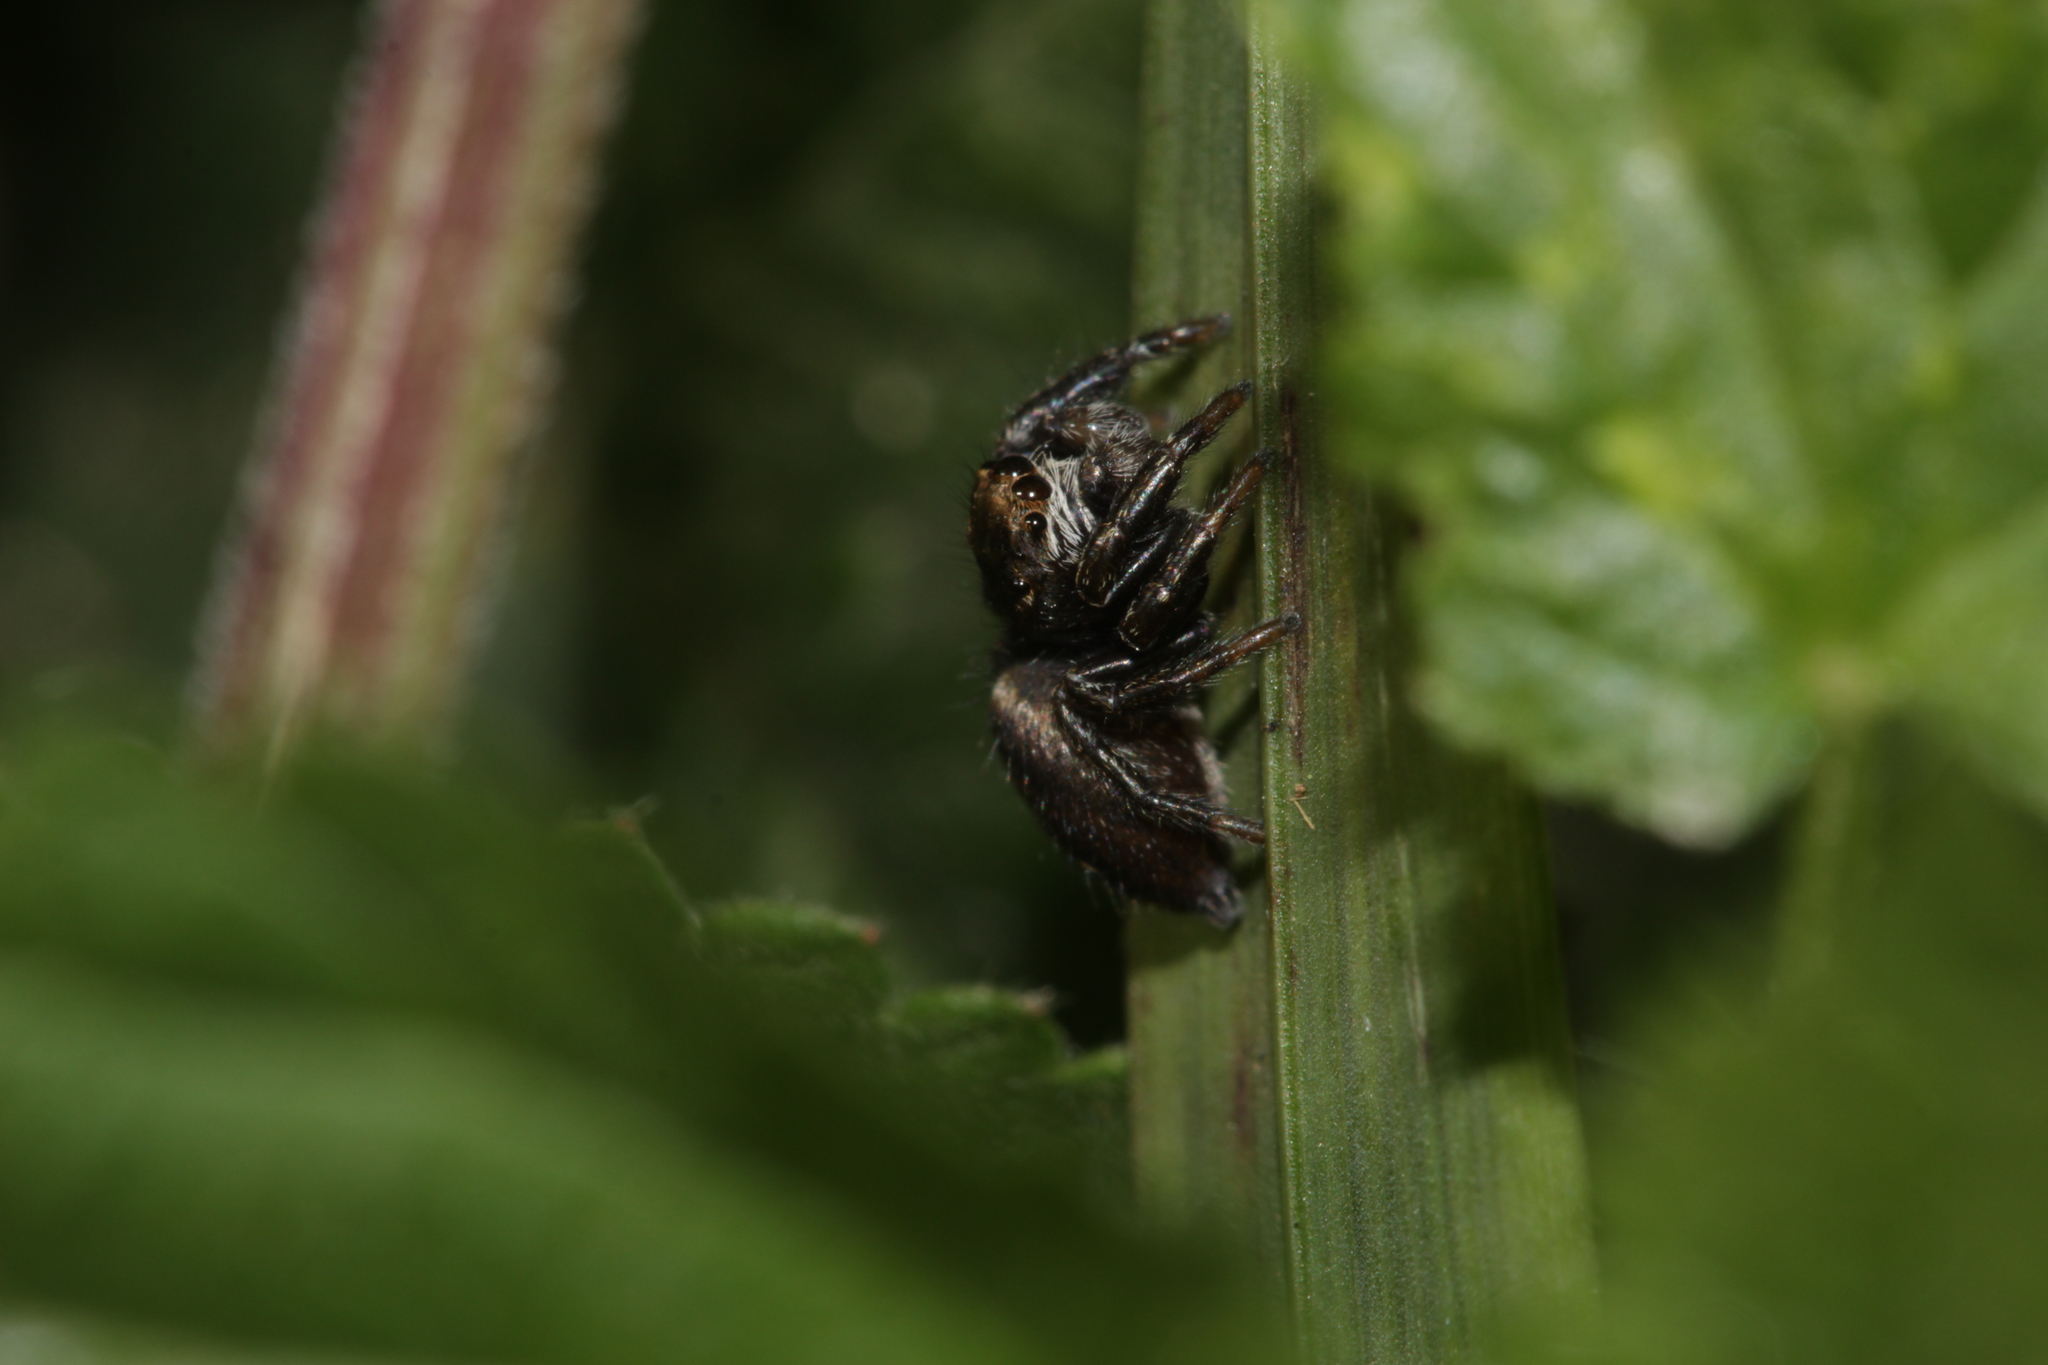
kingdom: Animalia
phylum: Arthropoda
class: Arachnida
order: Araneae
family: Salticidae
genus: Evarcha
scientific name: Evarcha arcuata
